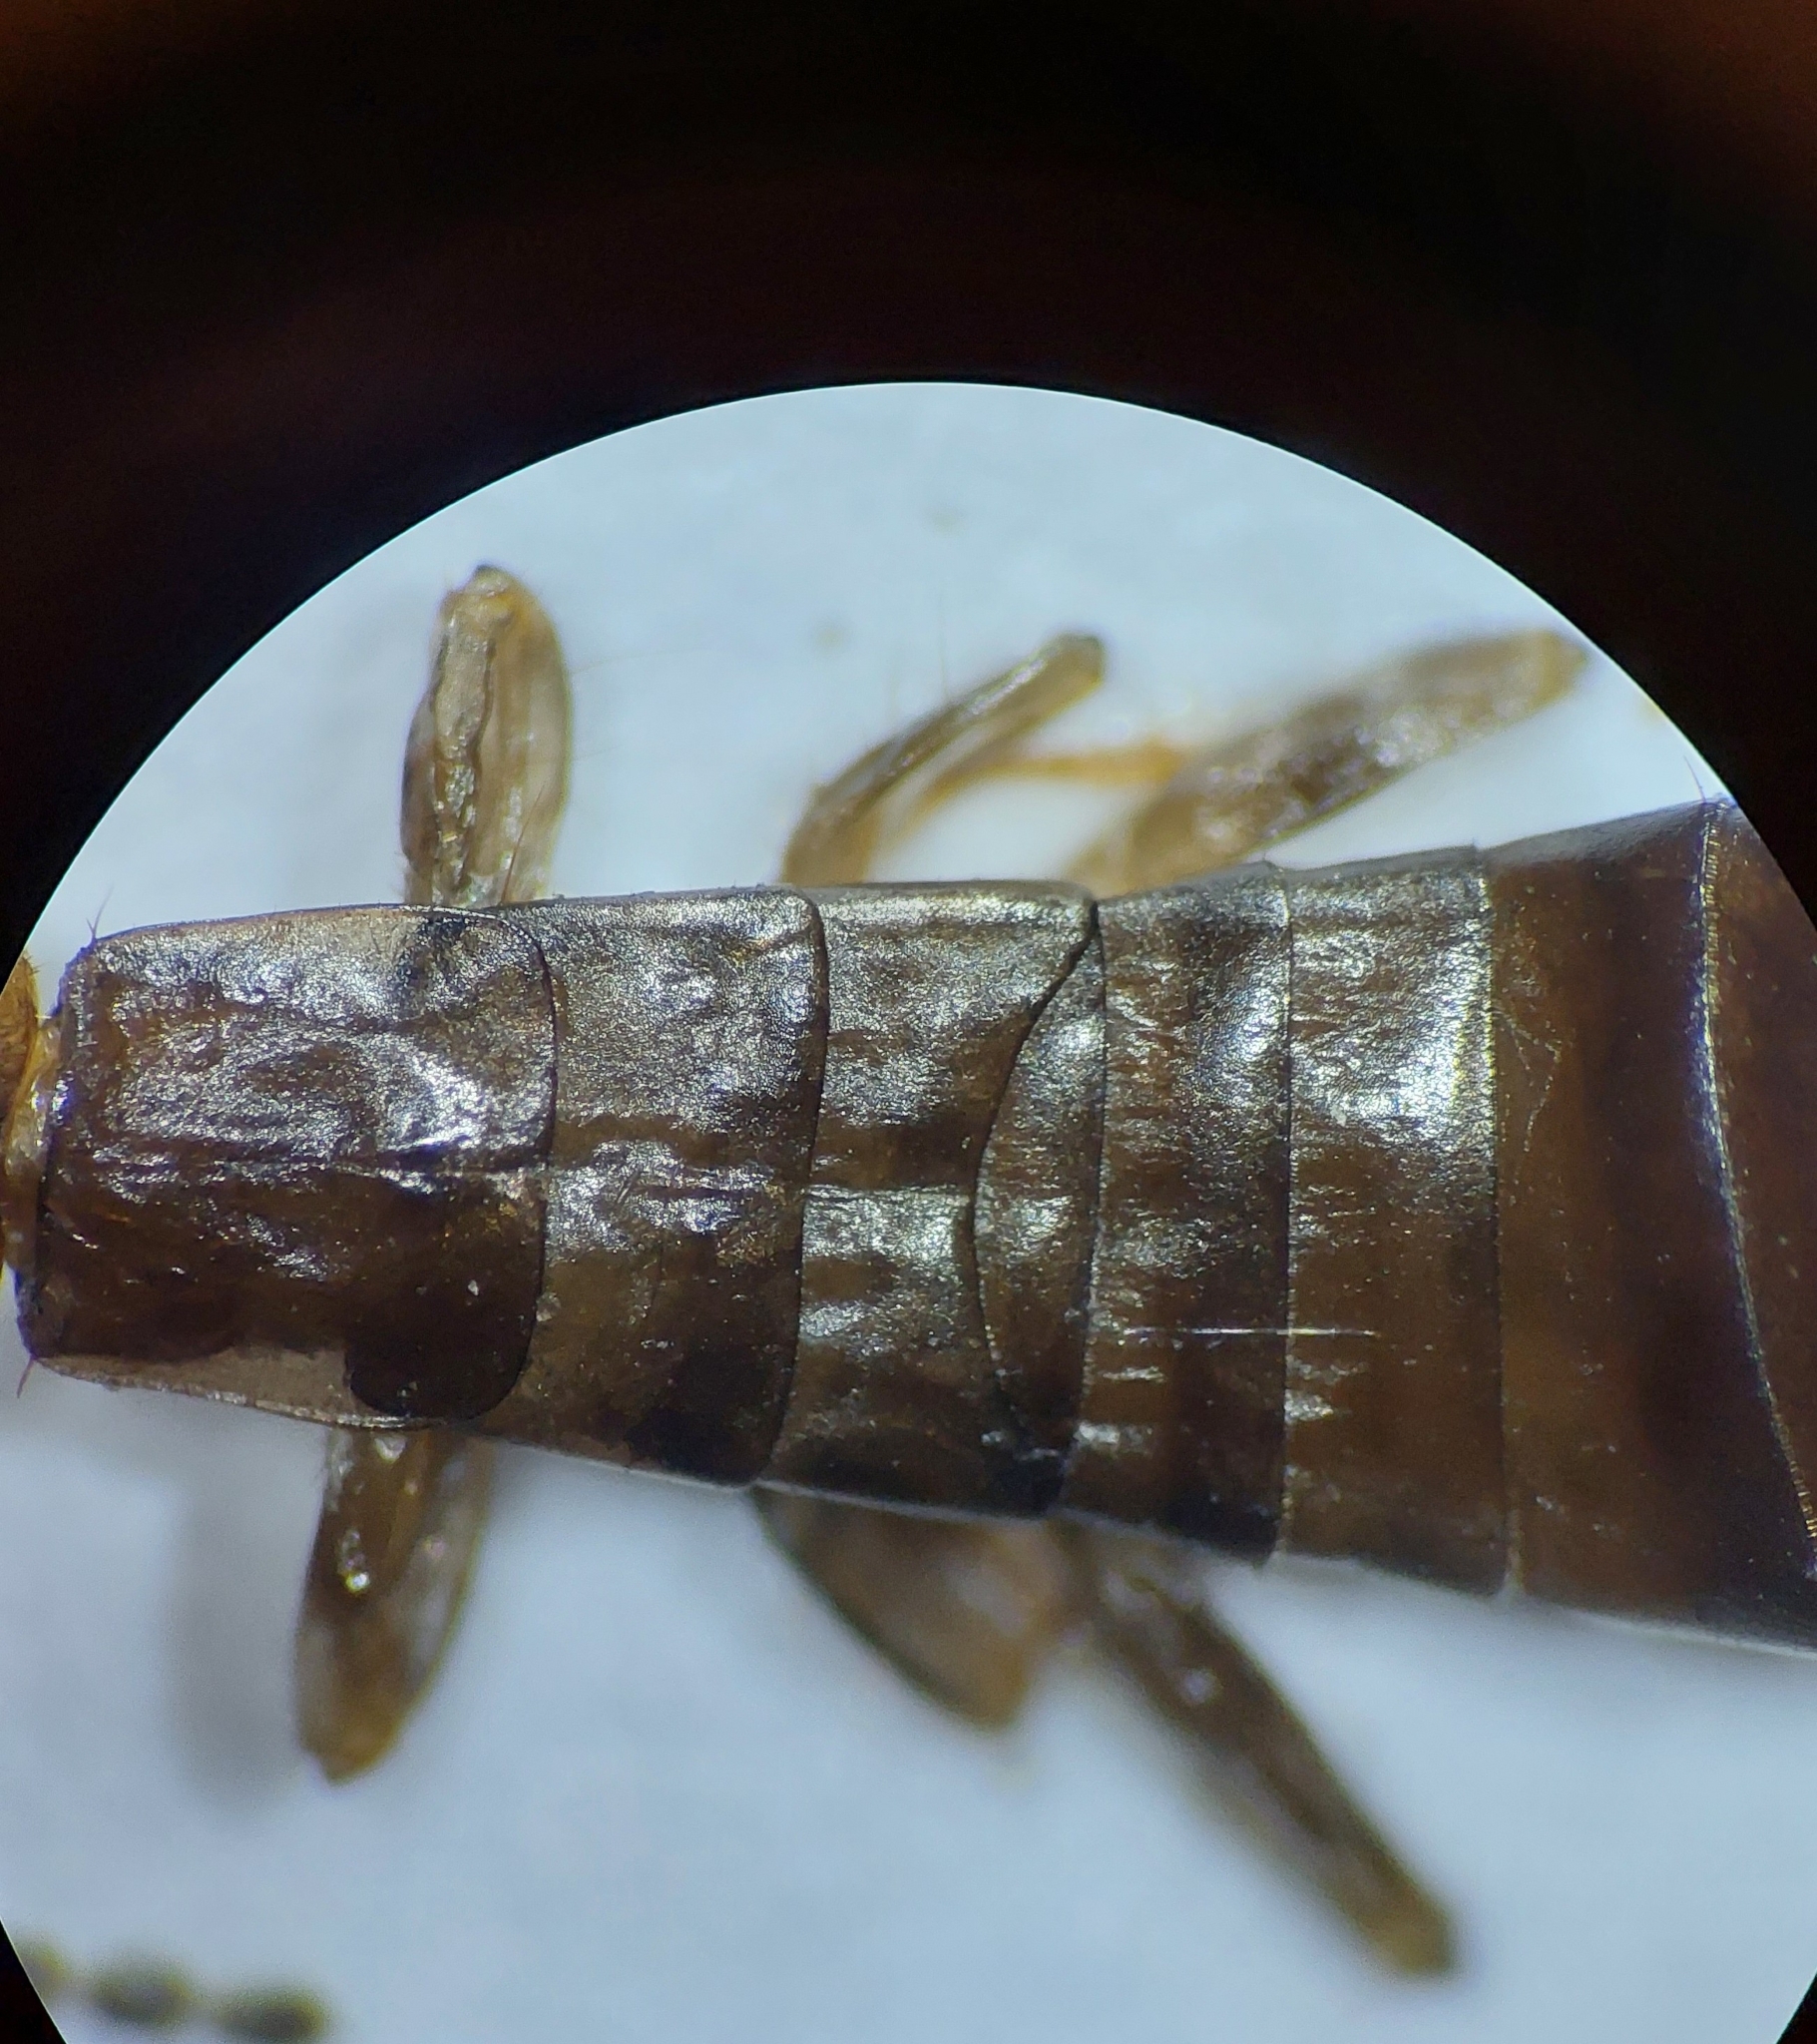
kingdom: Animalia
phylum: Arthropoda
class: Insecta
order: Dermaptera
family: Anisolabididae
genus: Euborellia
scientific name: Euborellia annulipes
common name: Ringlegged earwig
